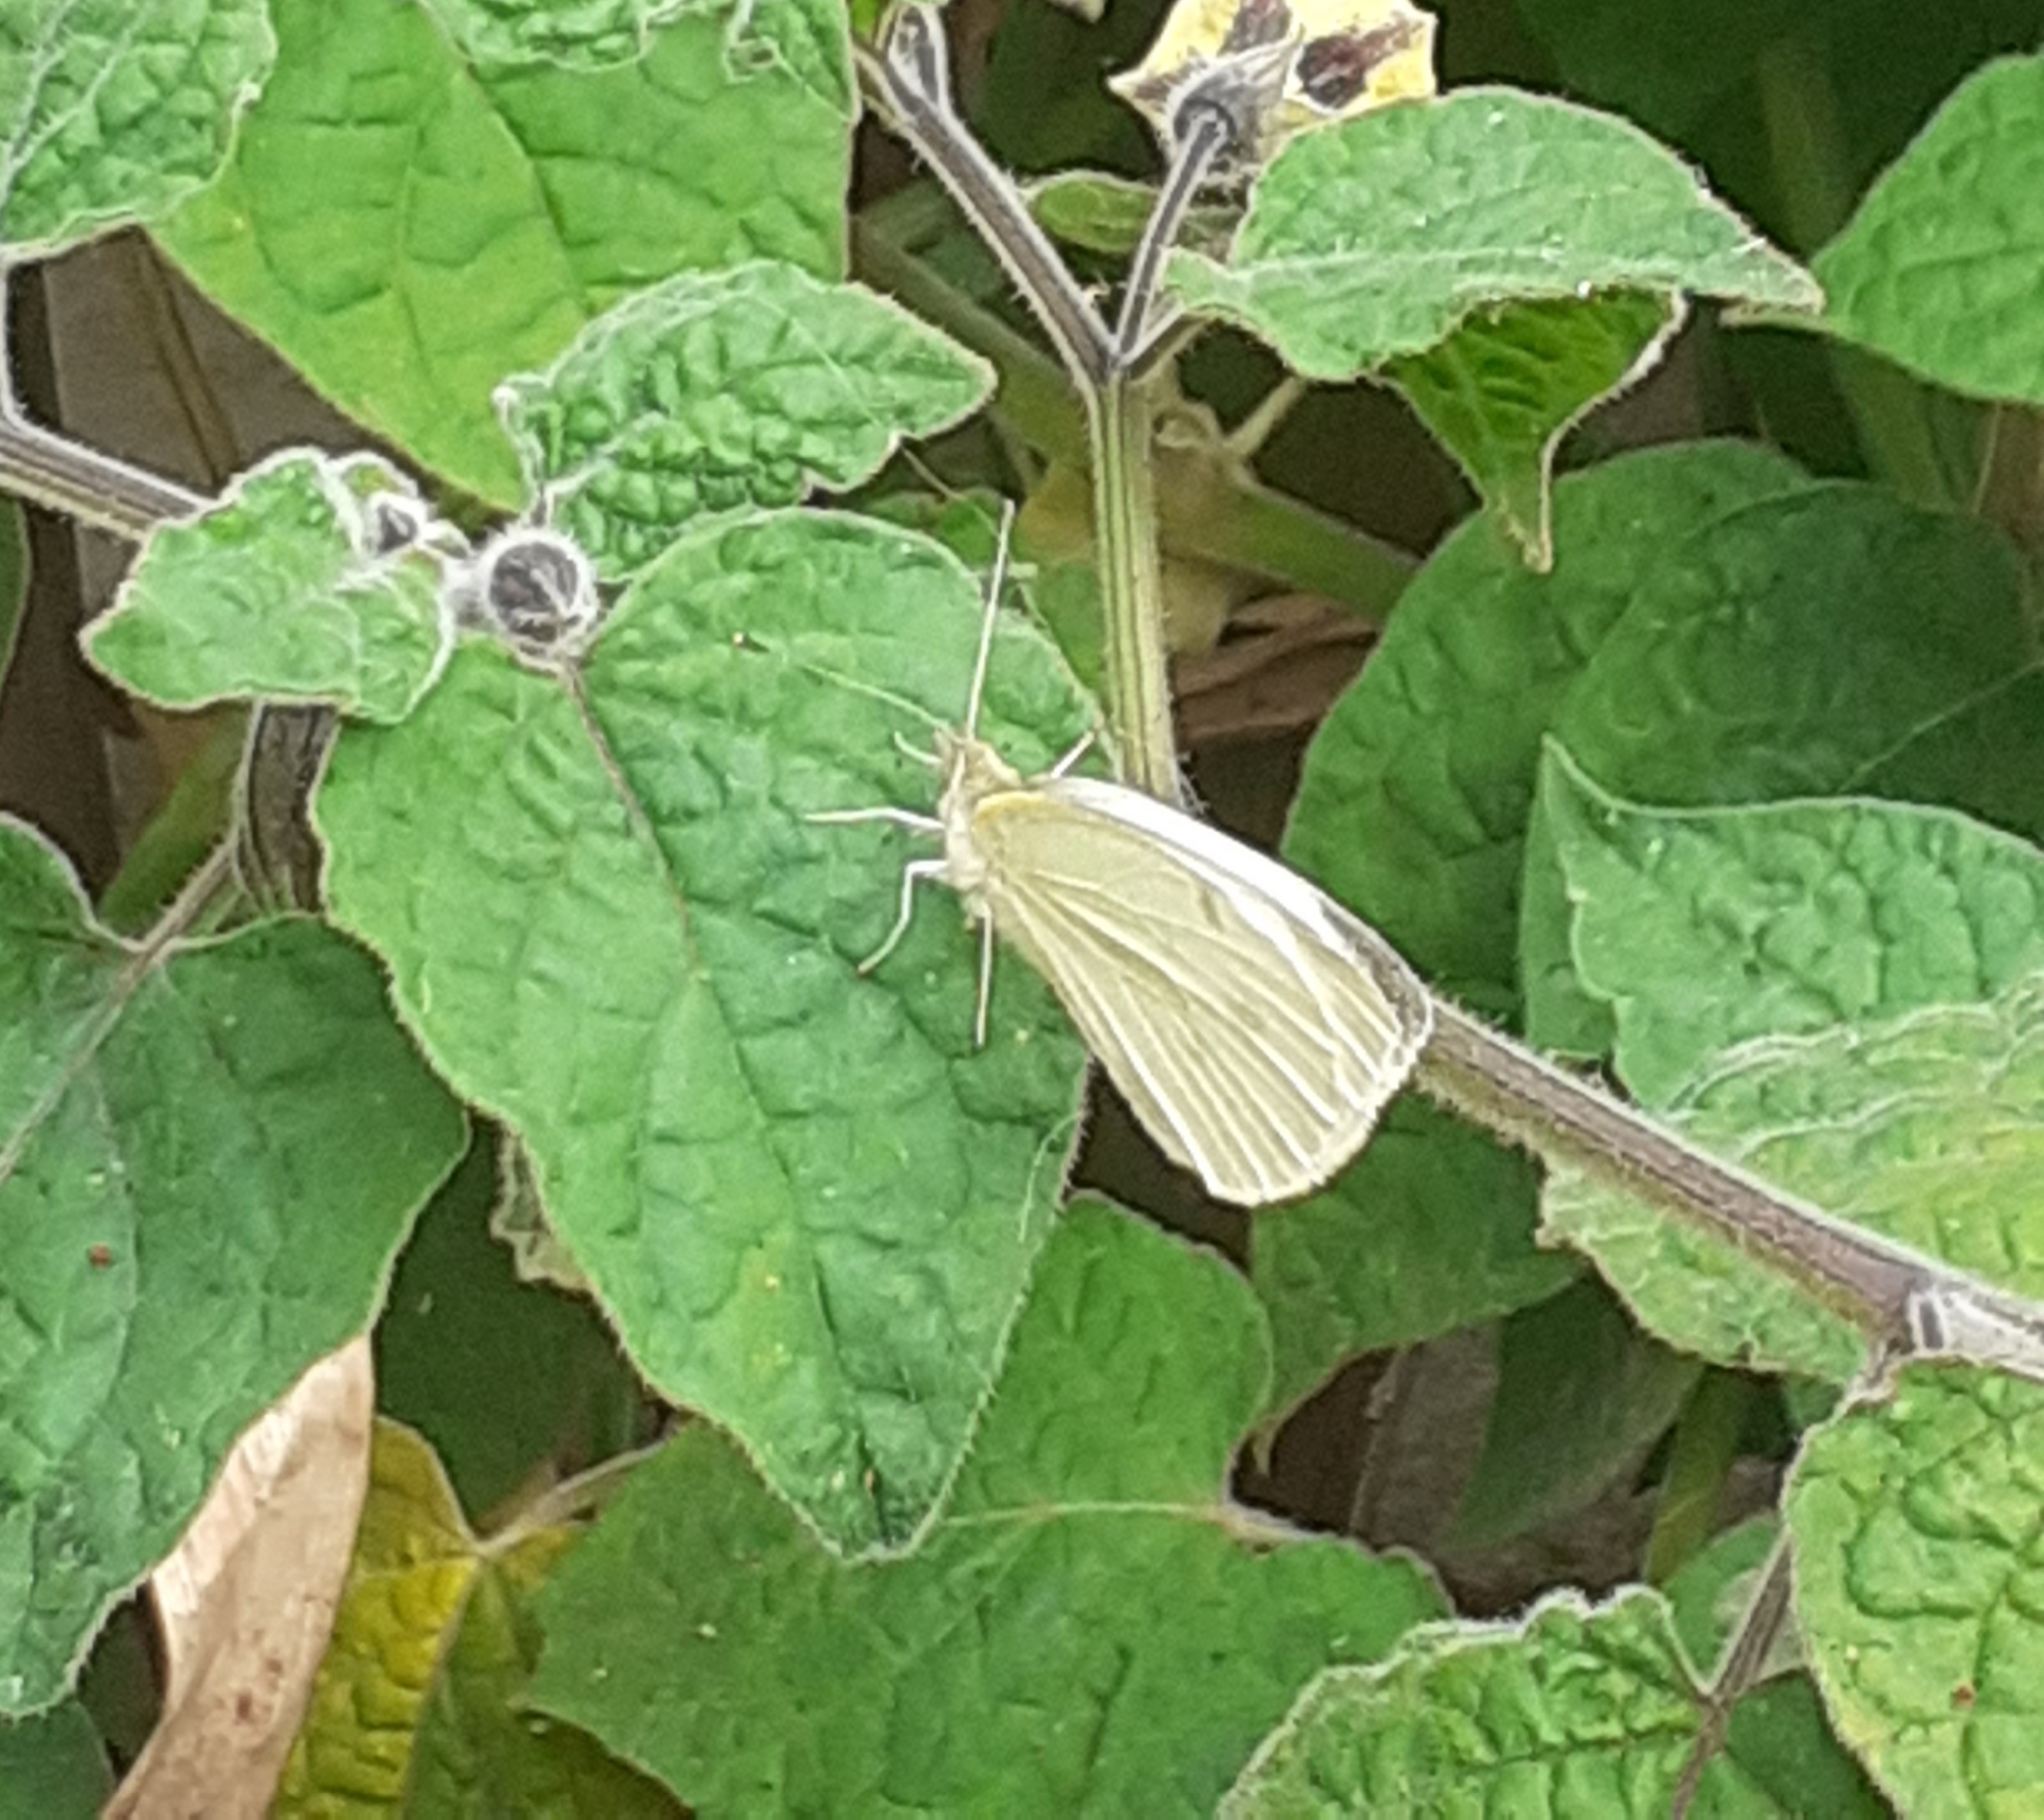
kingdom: Animalia
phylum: Arthropoda
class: Insecta
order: Lepidoptera
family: Pieridae
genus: Pieris
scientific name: Pieris rapae
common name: Small white
